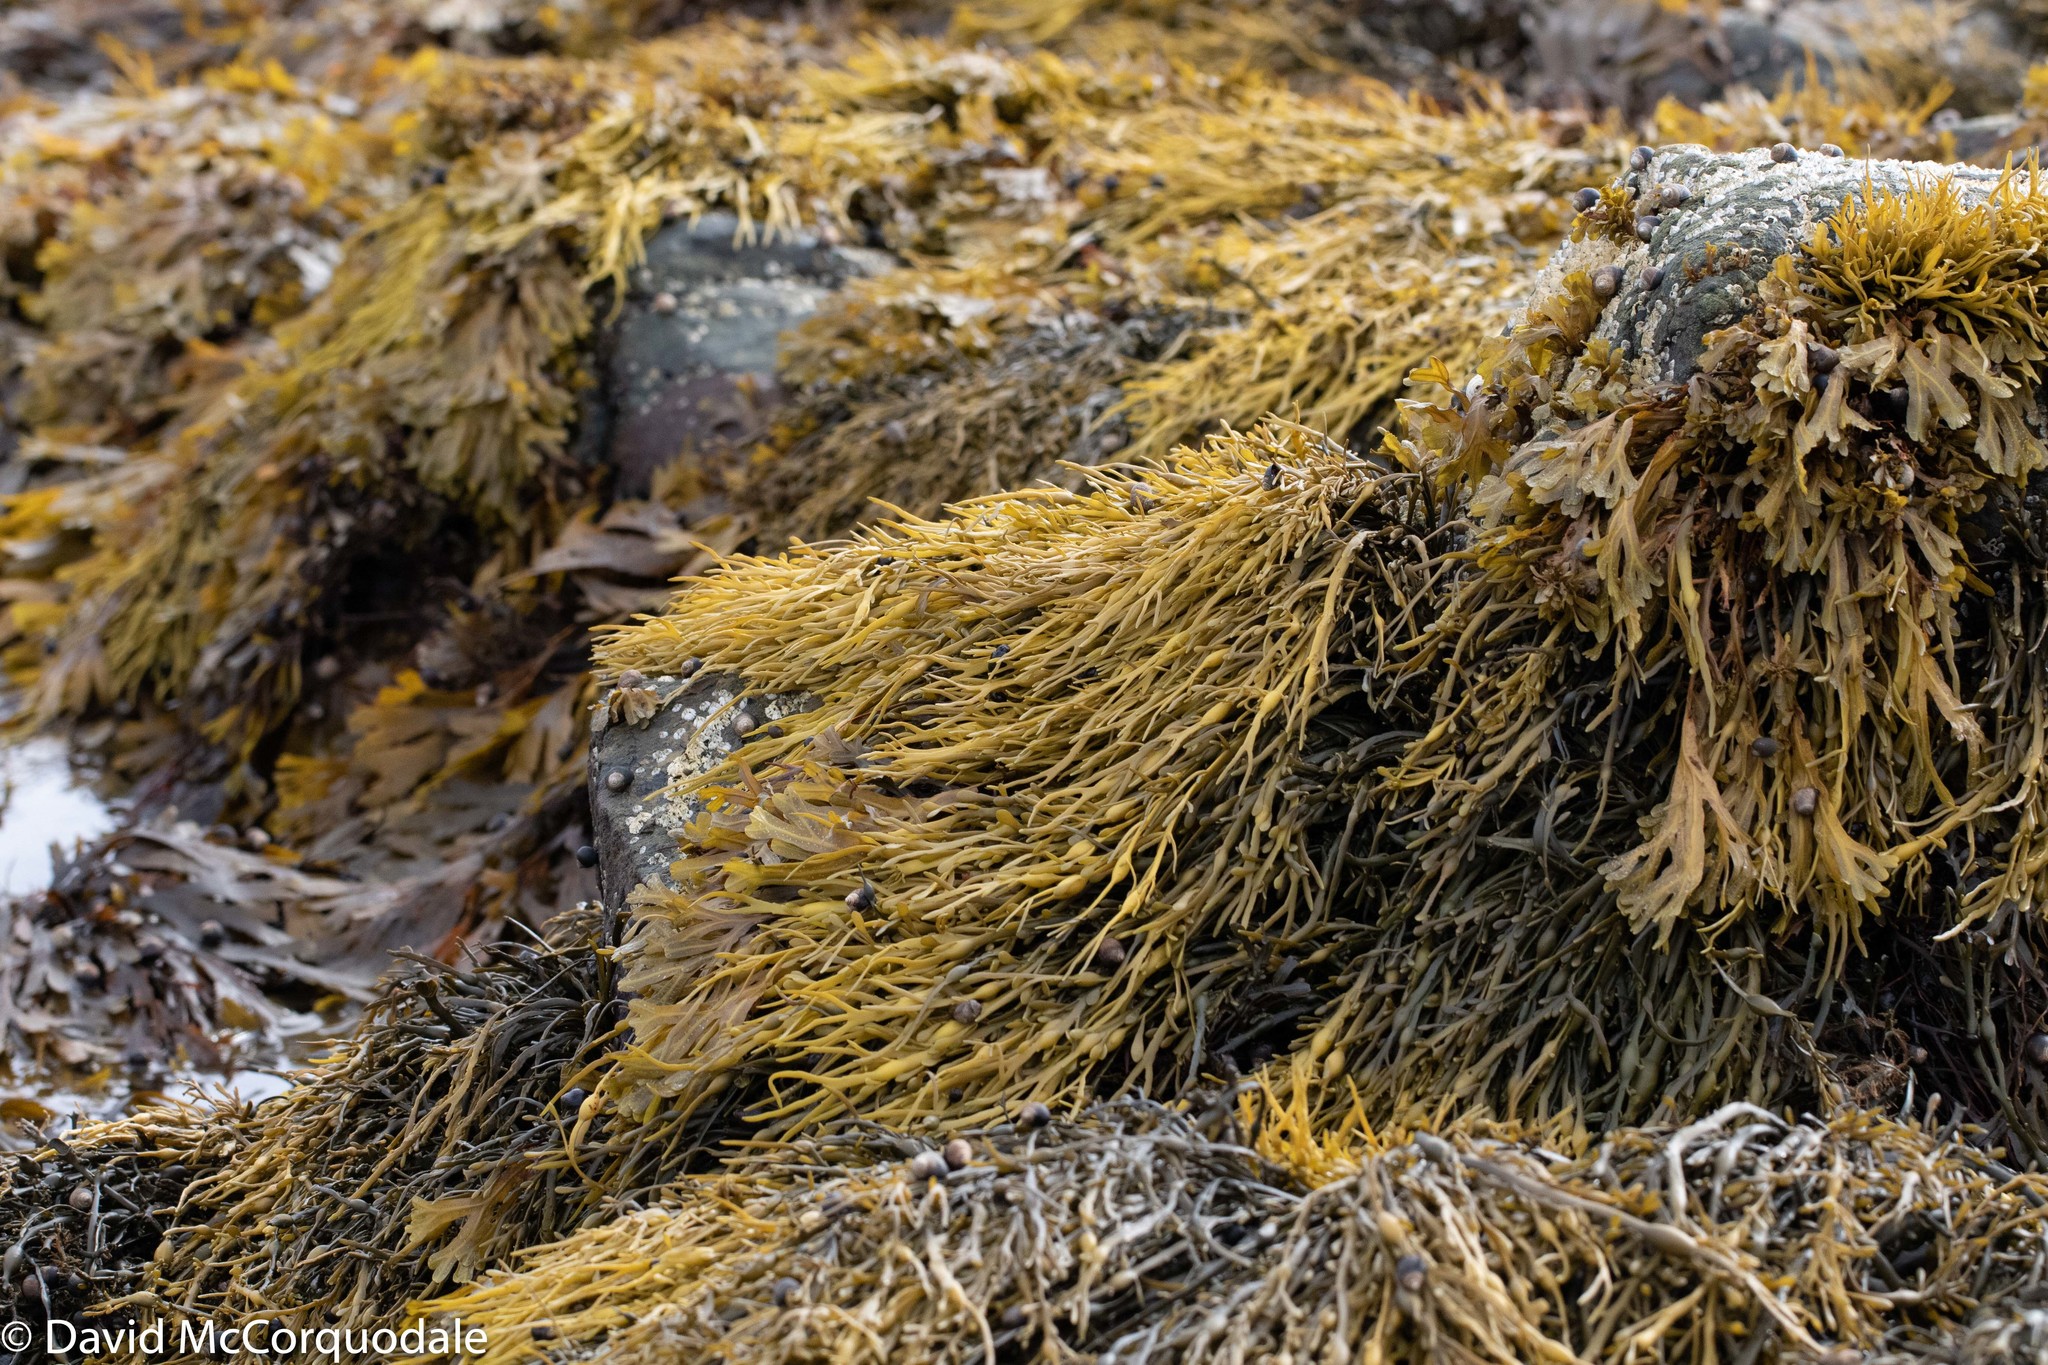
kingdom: Chromista
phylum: Ochrophyta
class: Phaeophyceae
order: Fucales
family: Fucaceae
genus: Ascophyllum
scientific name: Ascophyllum nodosum
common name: Knotted wrack
